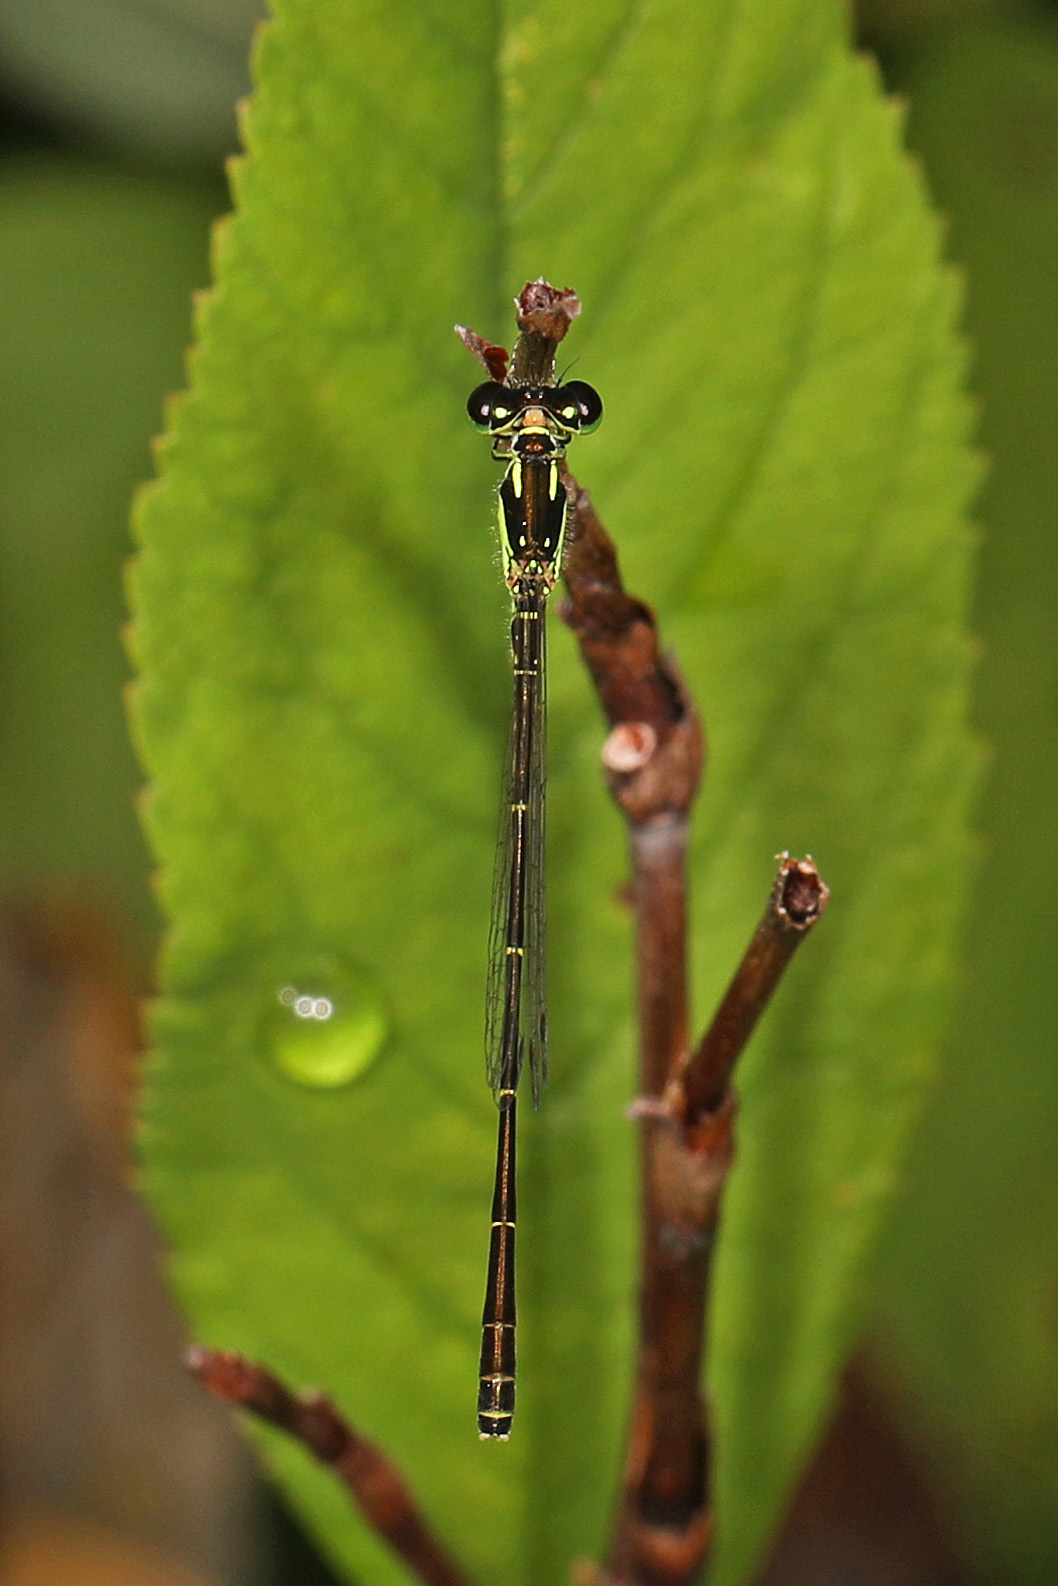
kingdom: Animalia
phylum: Arthropoda
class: Insecta
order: Odonata
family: Coenagrionidae
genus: Ischnura
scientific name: Ischnura posita
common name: Fragile forktail
